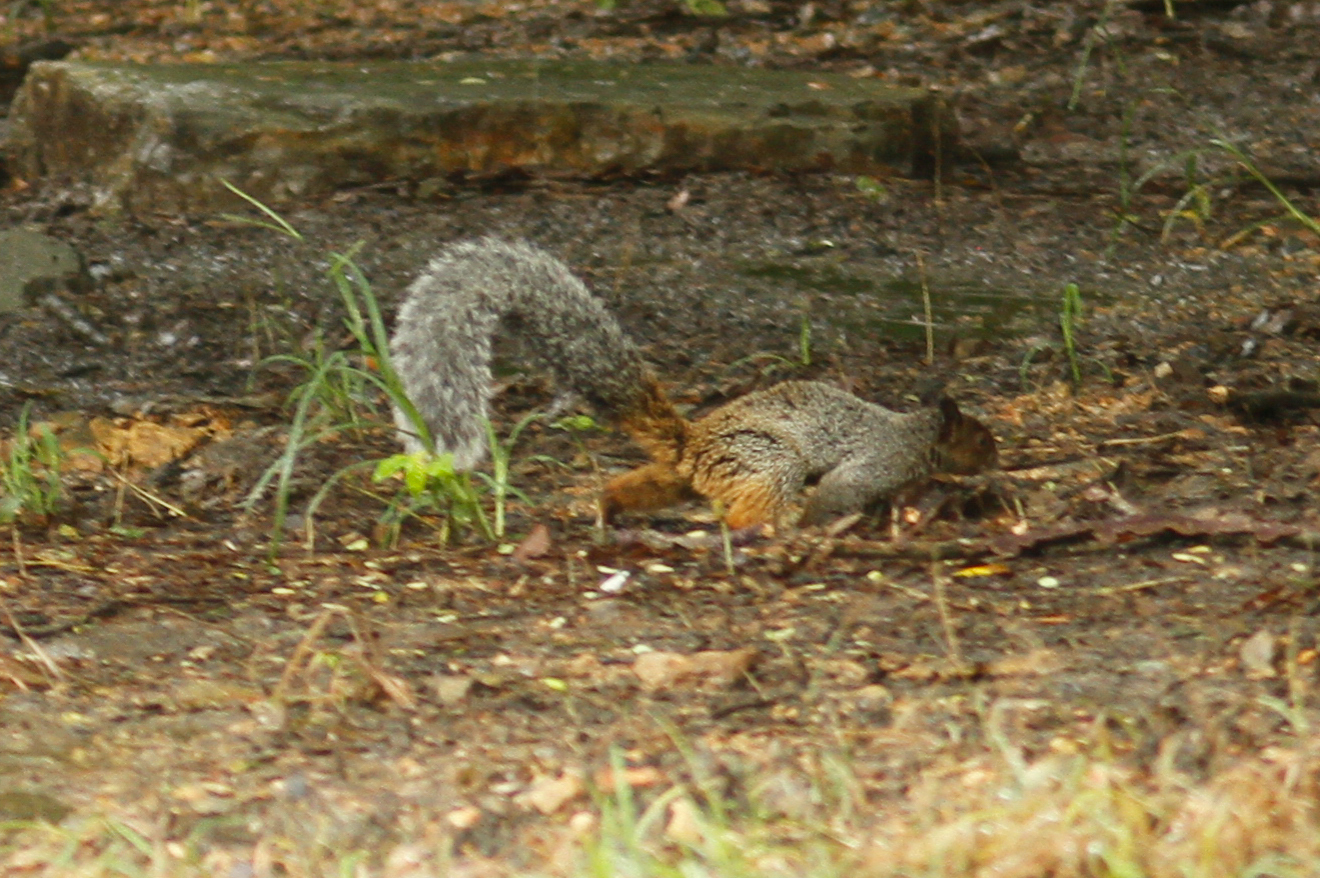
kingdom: Animalia
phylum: Chordata
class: Mammalia
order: Rodentia
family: Sciuridae
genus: Sciurus
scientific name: Sciurus stramineus
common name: Guayaquil squirrel
